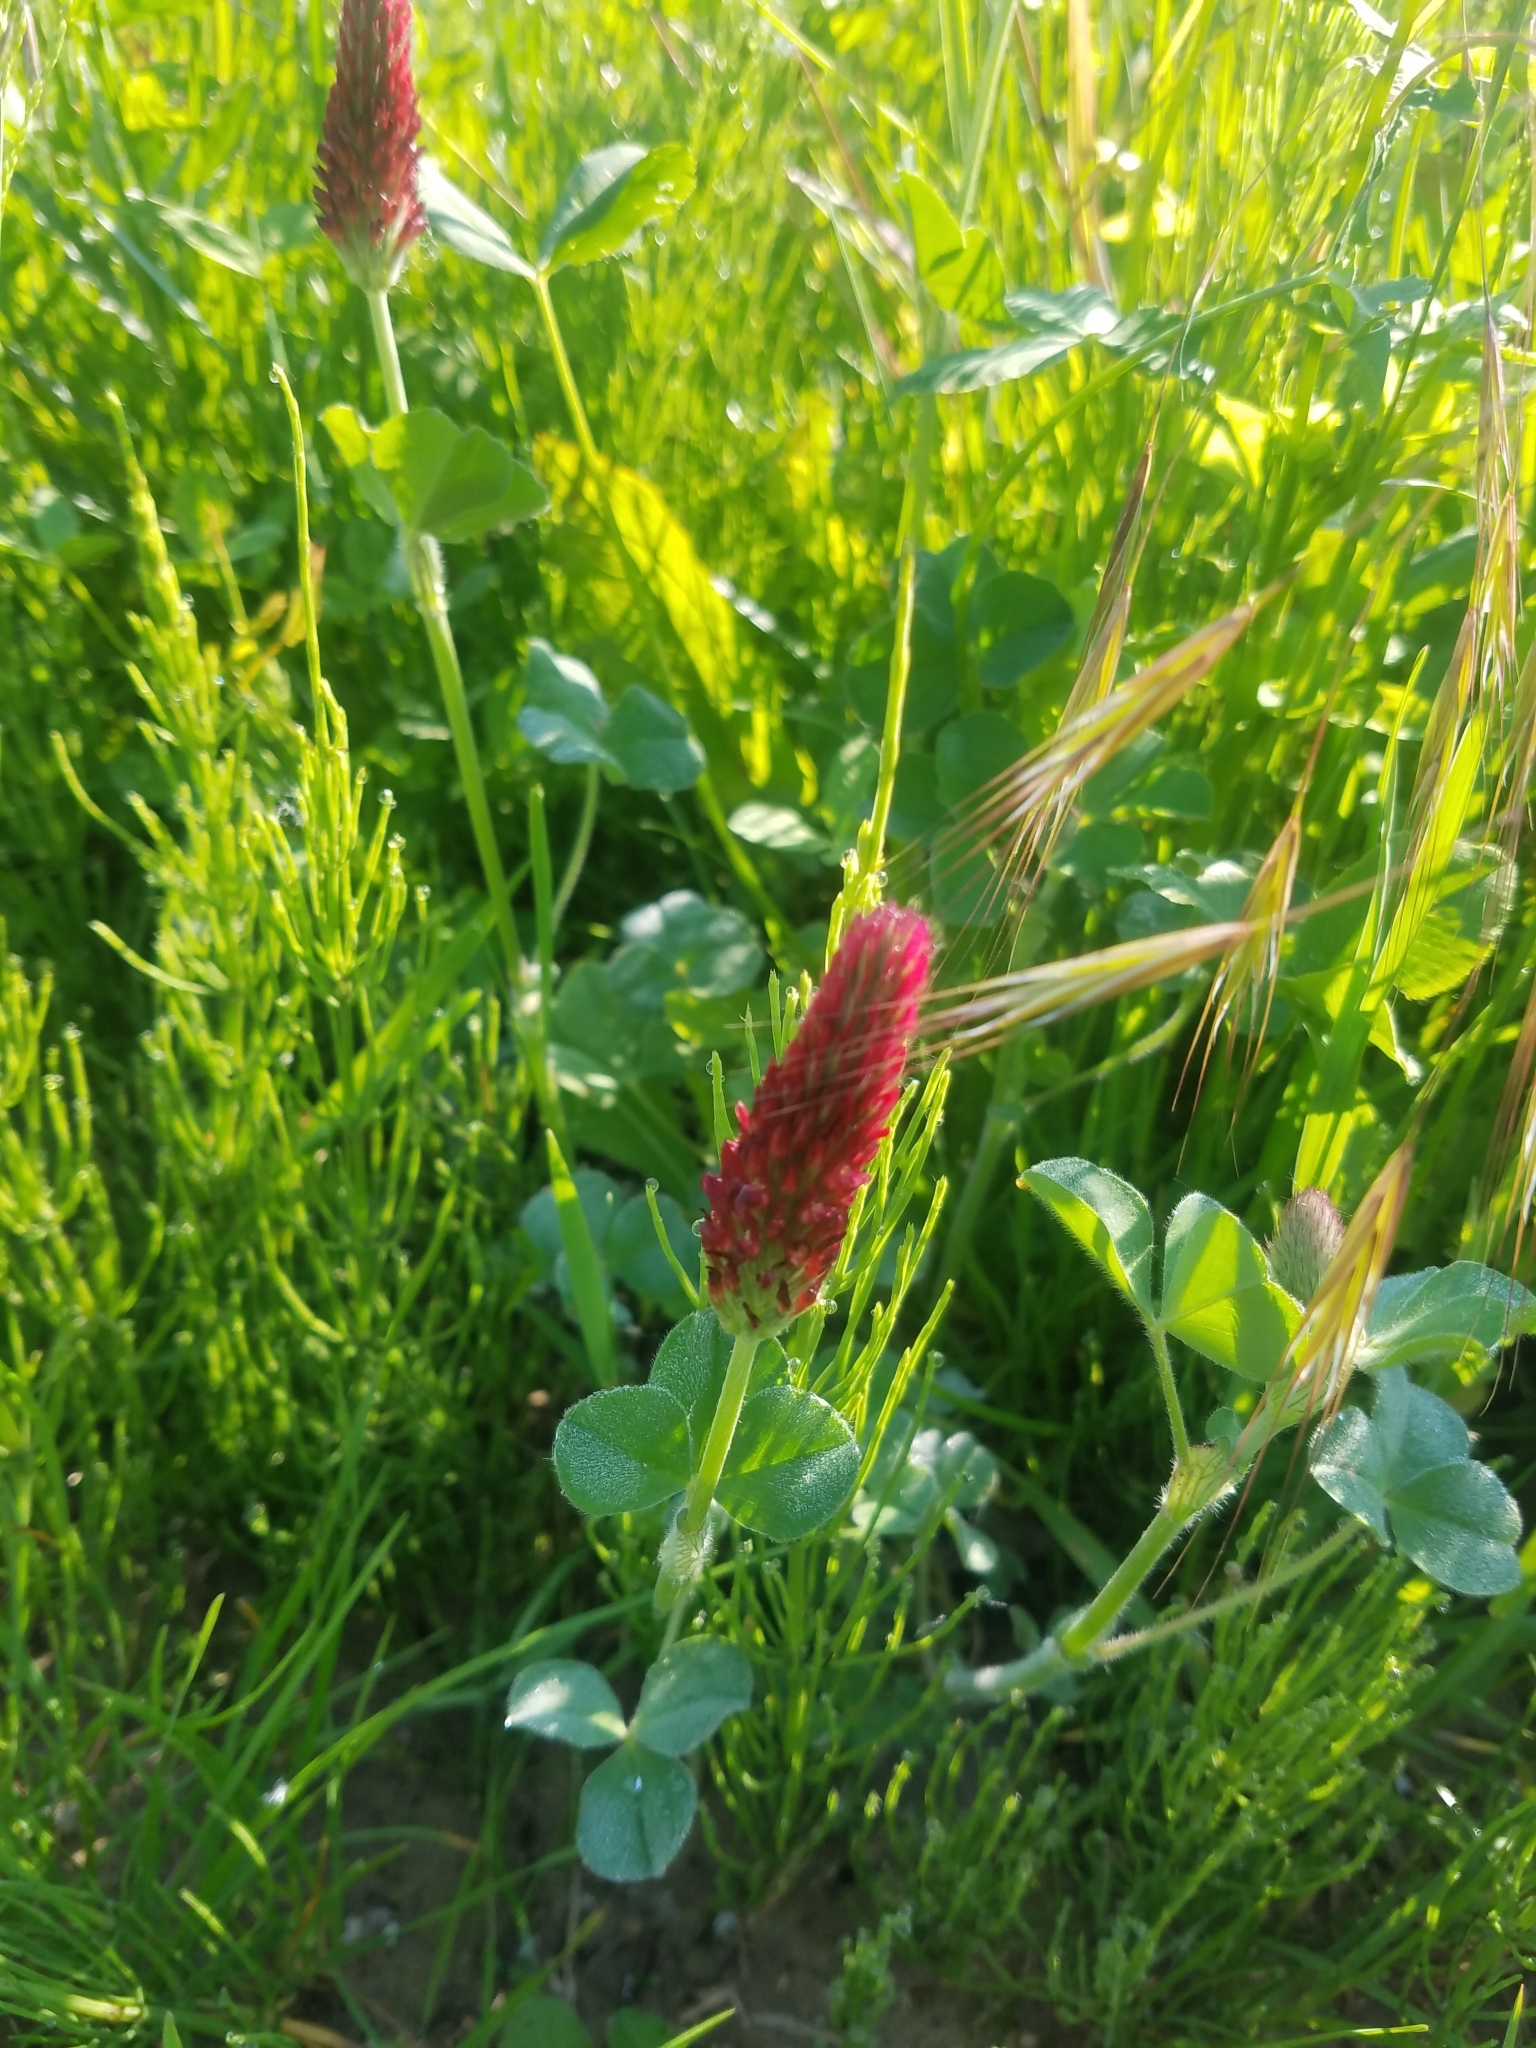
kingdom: Plantae
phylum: Tracheophyta
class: Magnoliopsida
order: Fabales
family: Fabaceae
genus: Trifolium
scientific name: Trifolium incarnatum
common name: Crimson clover
